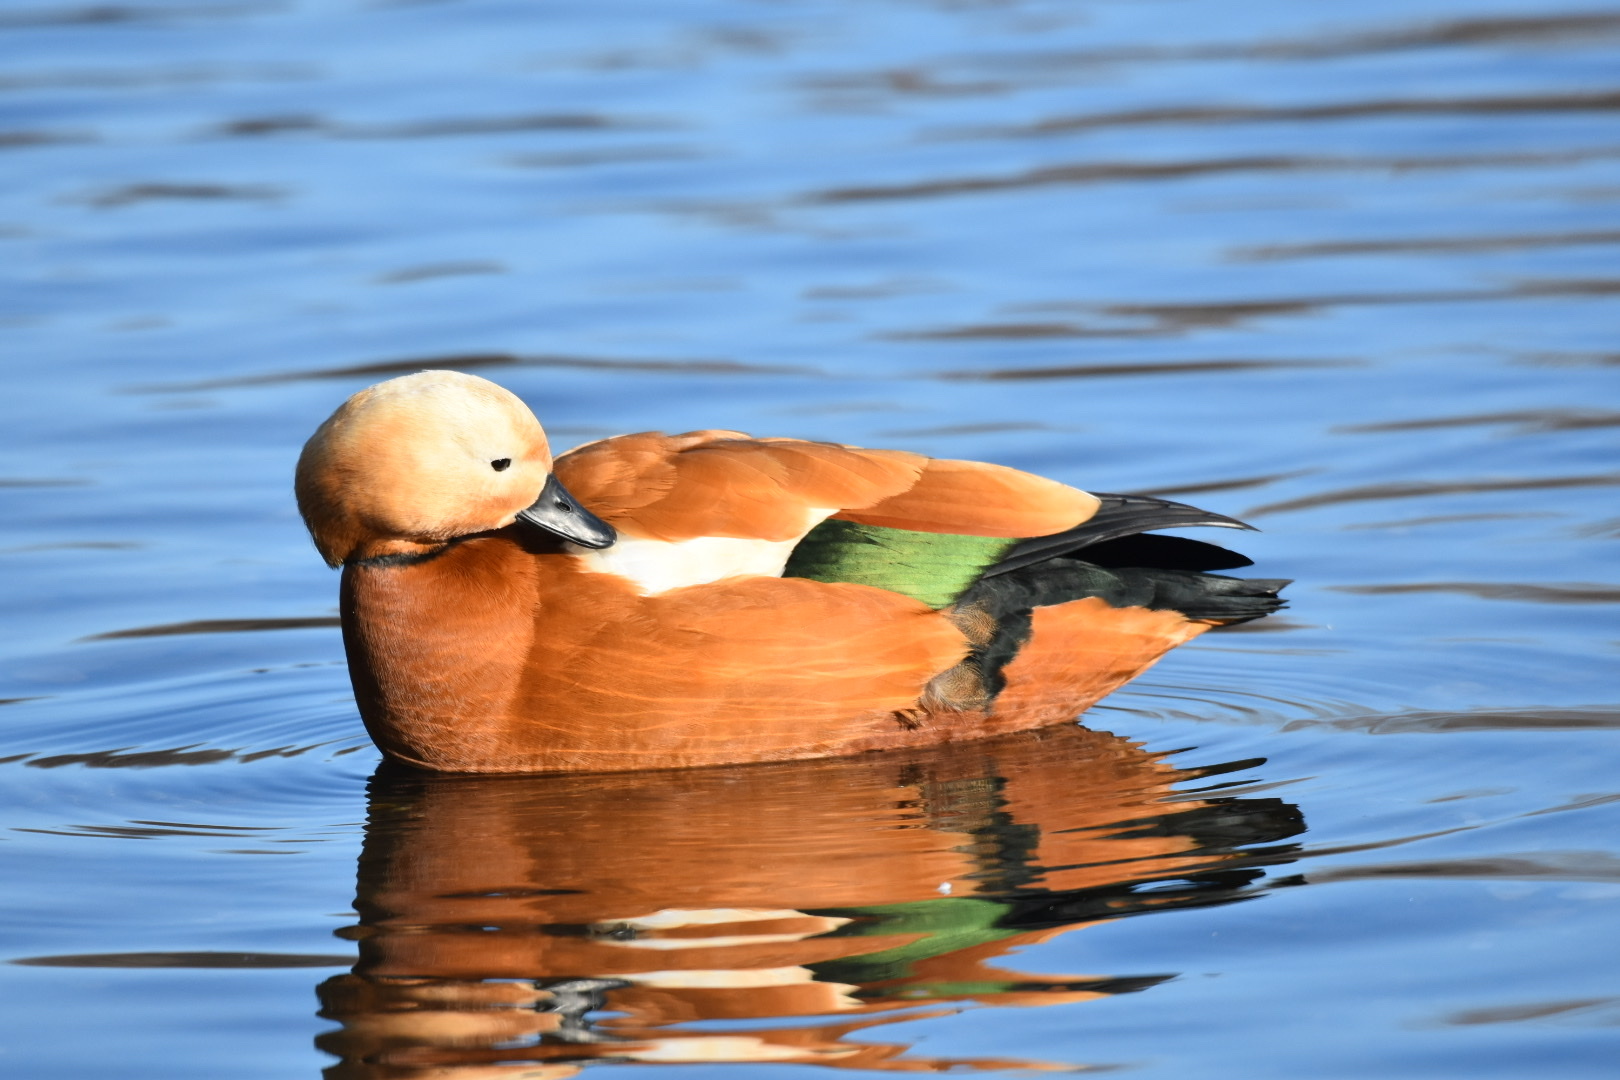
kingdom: Animalia
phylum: Chordata
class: Aves
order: Anseriformes
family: Anatidae
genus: Tadorna
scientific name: Tadorna ferruginea
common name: Ruddy shelduck
